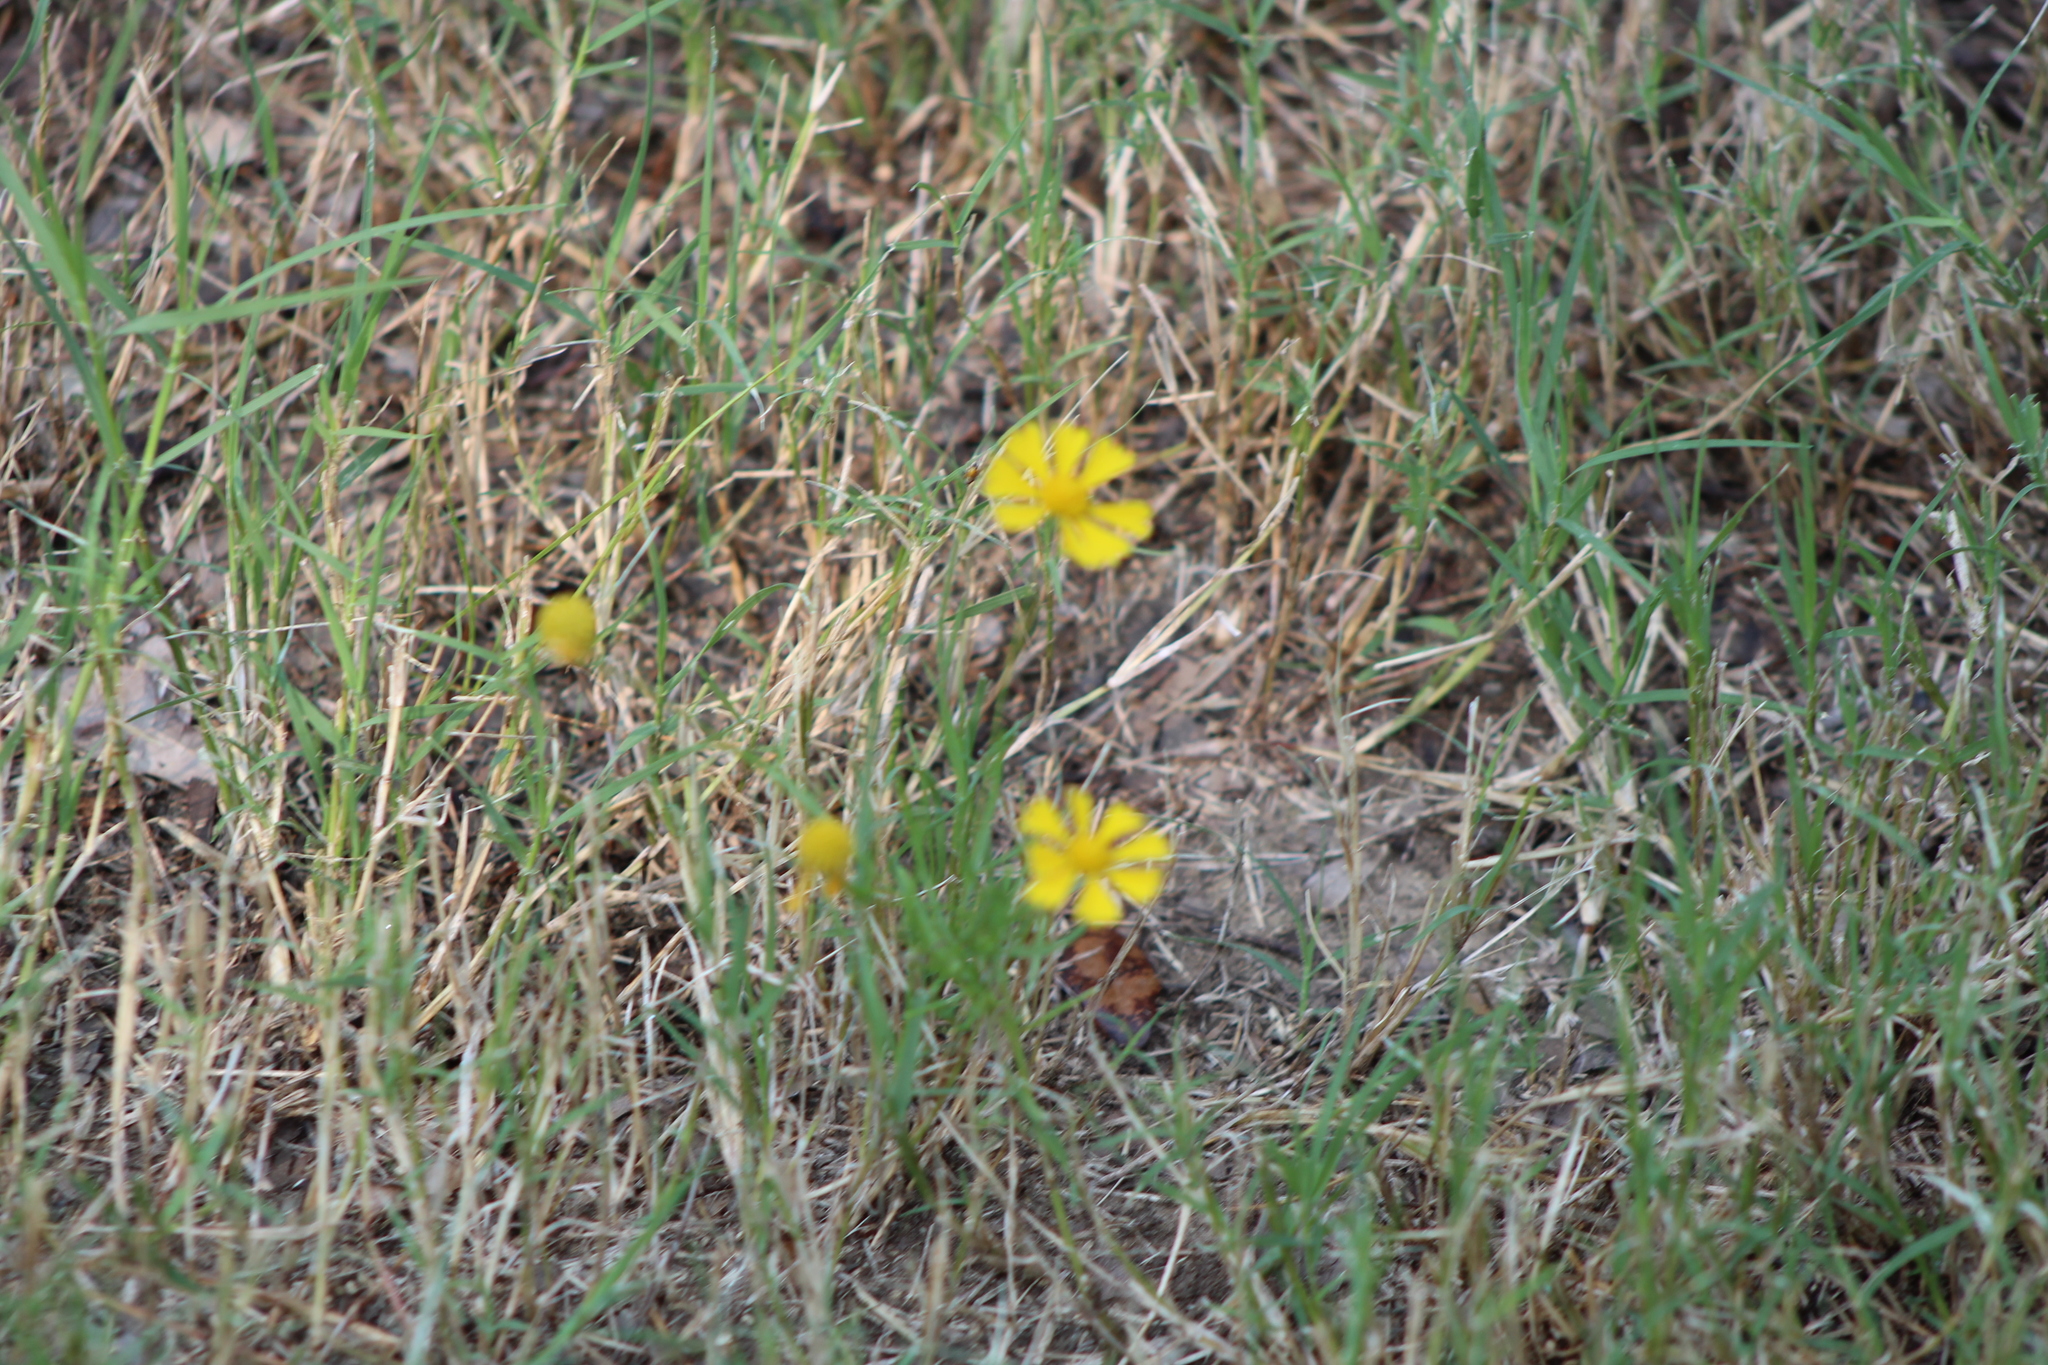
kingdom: Plantae
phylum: Tracheophyta
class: Magnoliopsida
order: Asterales
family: Asteraceae
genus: Helenium
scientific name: Helenium amarum
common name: Bitter sneezeweed
